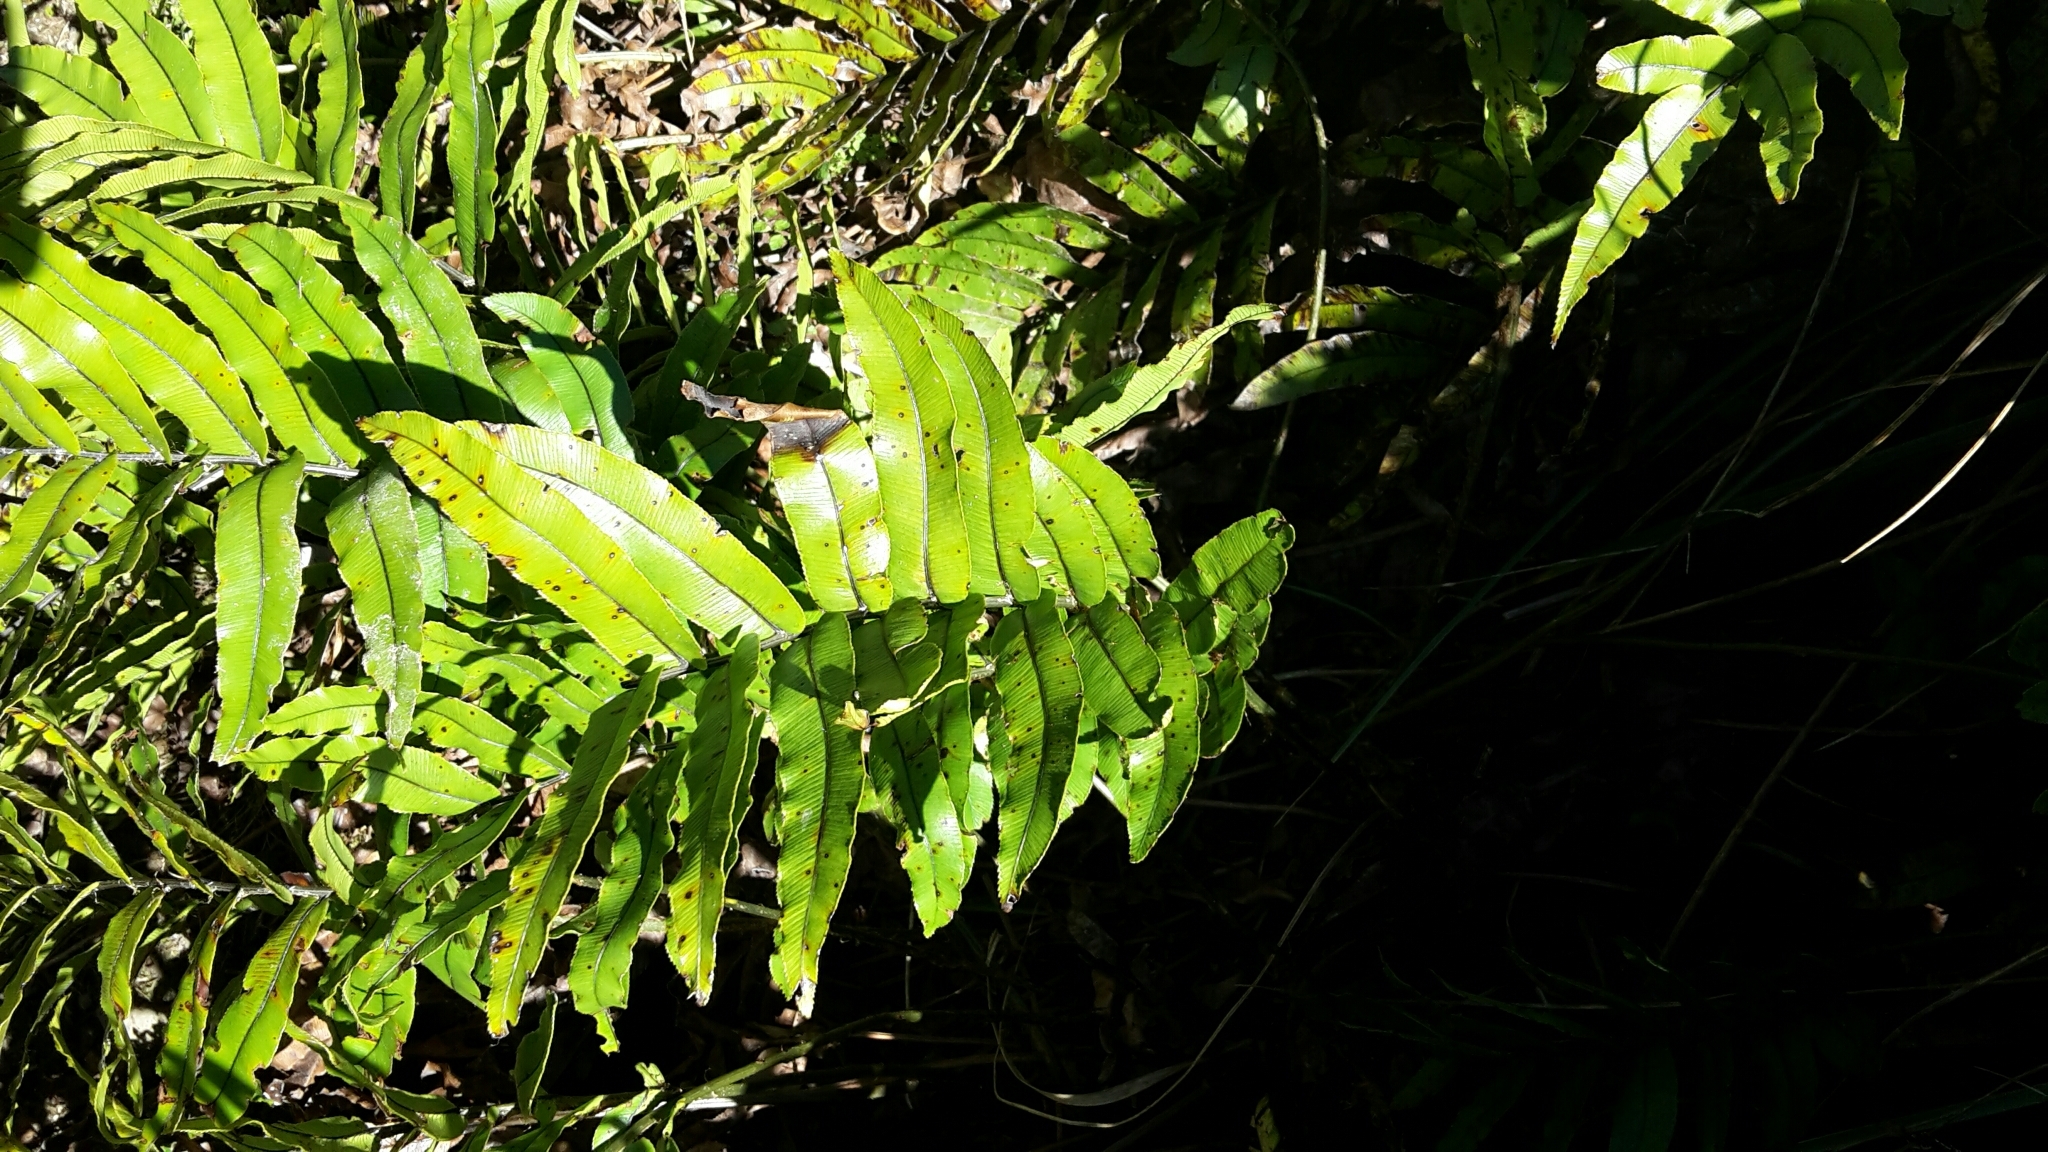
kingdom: Plantae
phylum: Tracheophyta
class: Polypodiopsida
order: Polypodiales
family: Blechnaceae
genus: Parablechnum
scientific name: Parablechnum montanum
